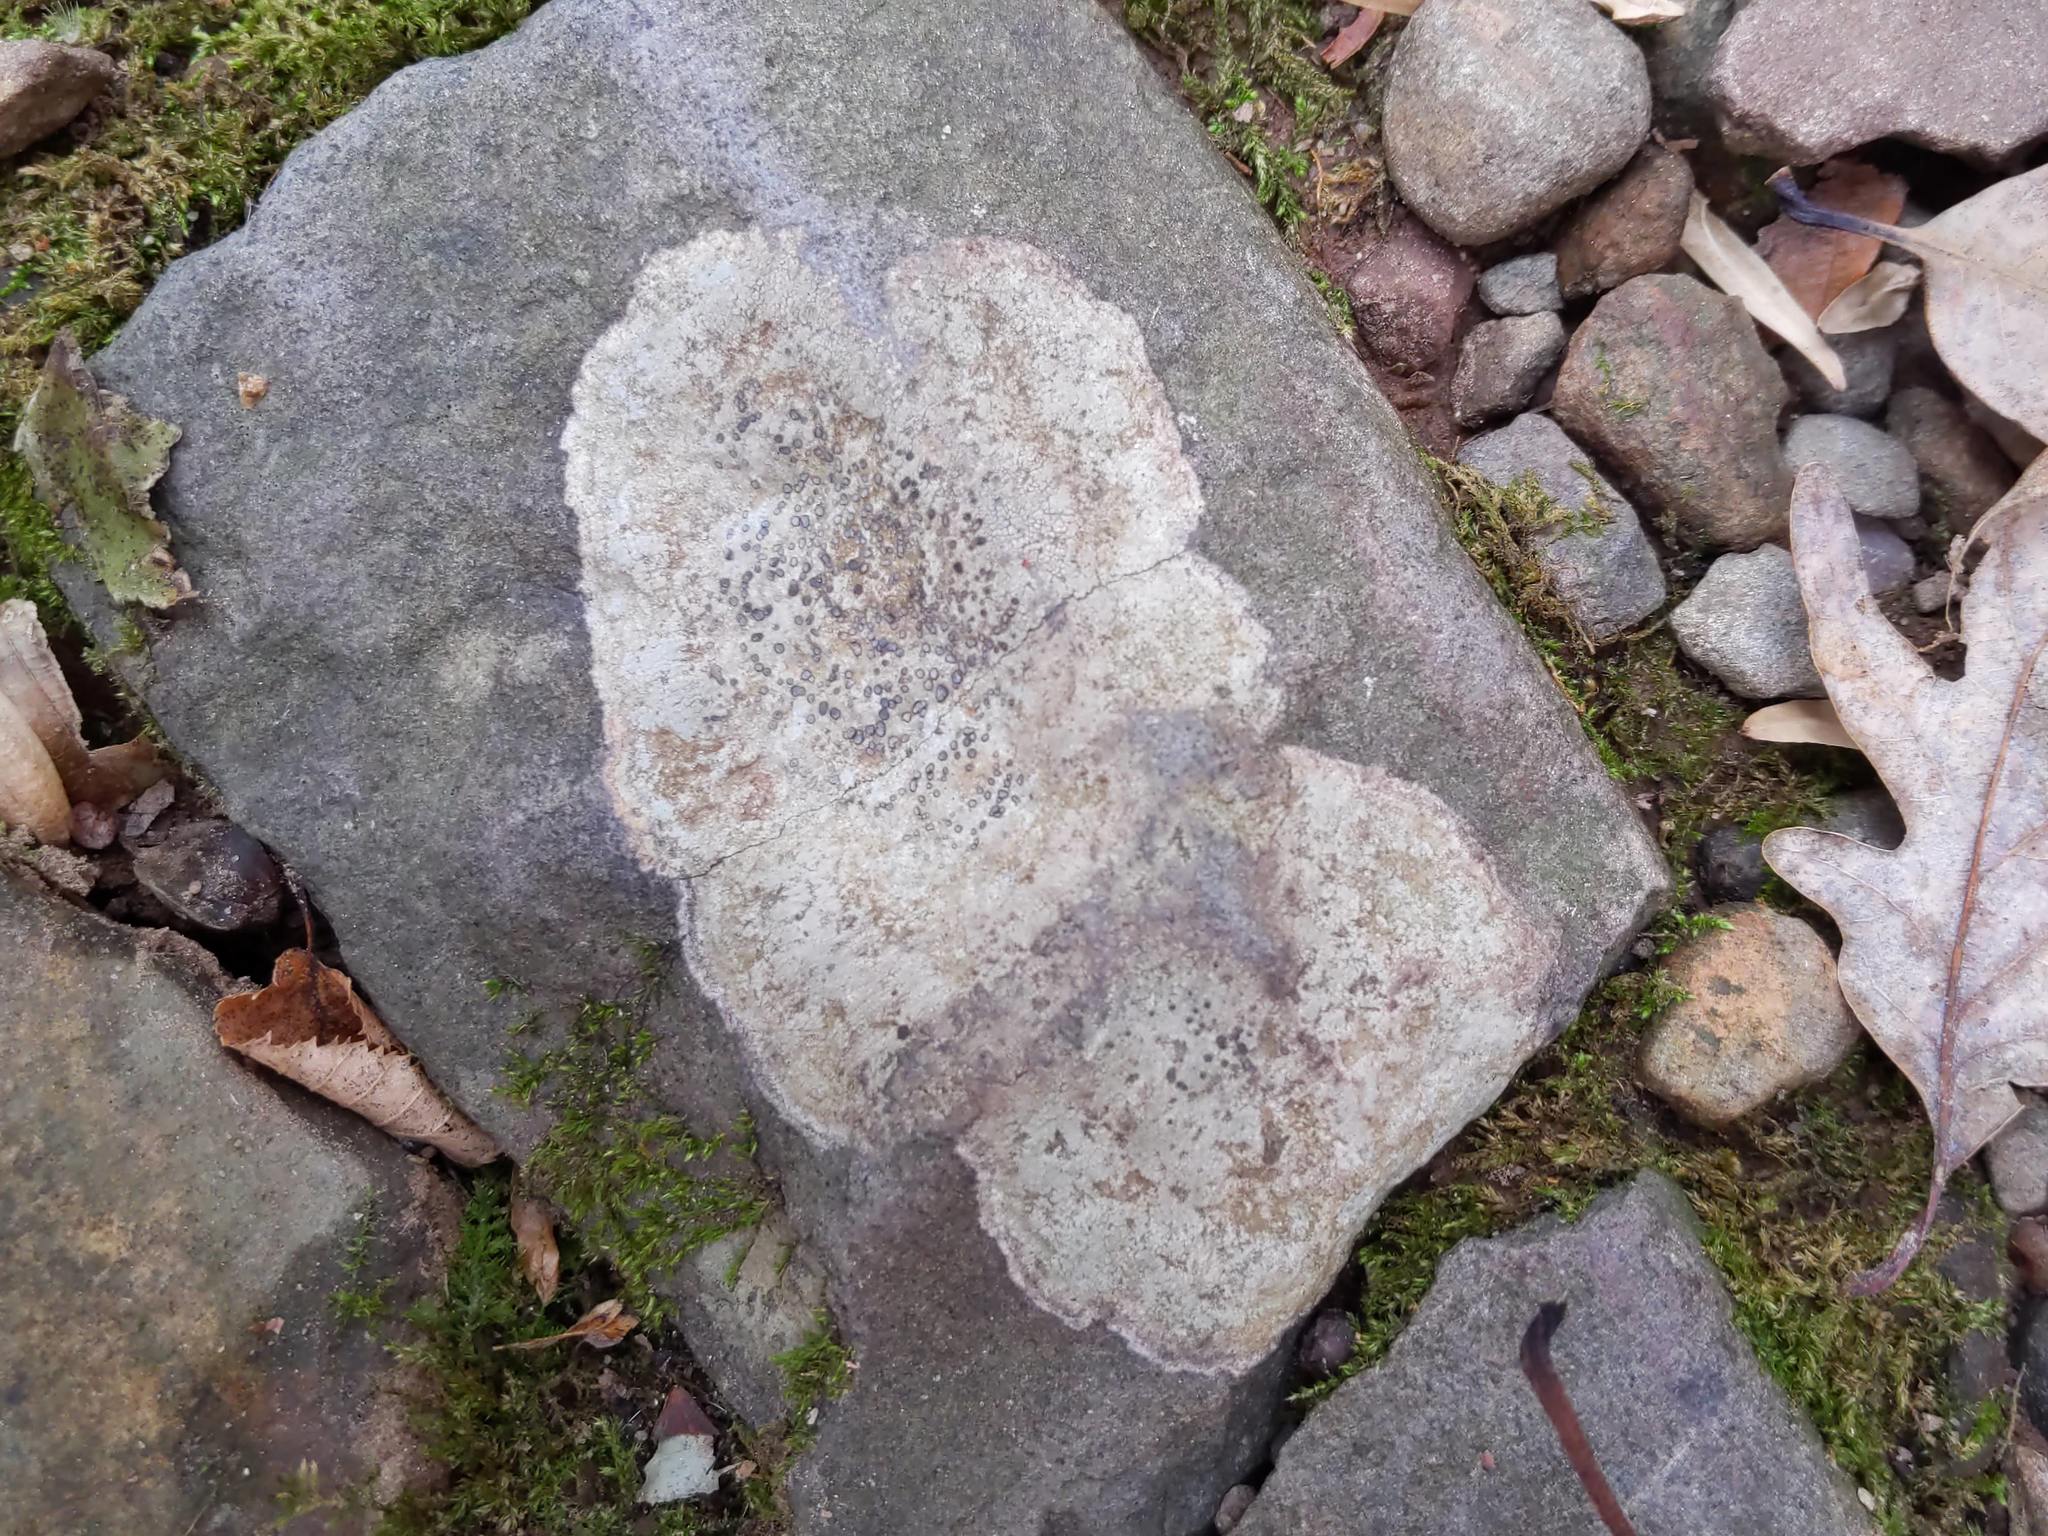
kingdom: Fungi
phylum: Ascomycota
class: Lecanoromycetes
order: Lecideales
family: Lecideaceae
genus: Porpidia
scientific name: Porpidia albocaerulescens
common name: Smokey-eyed boulder lichen
